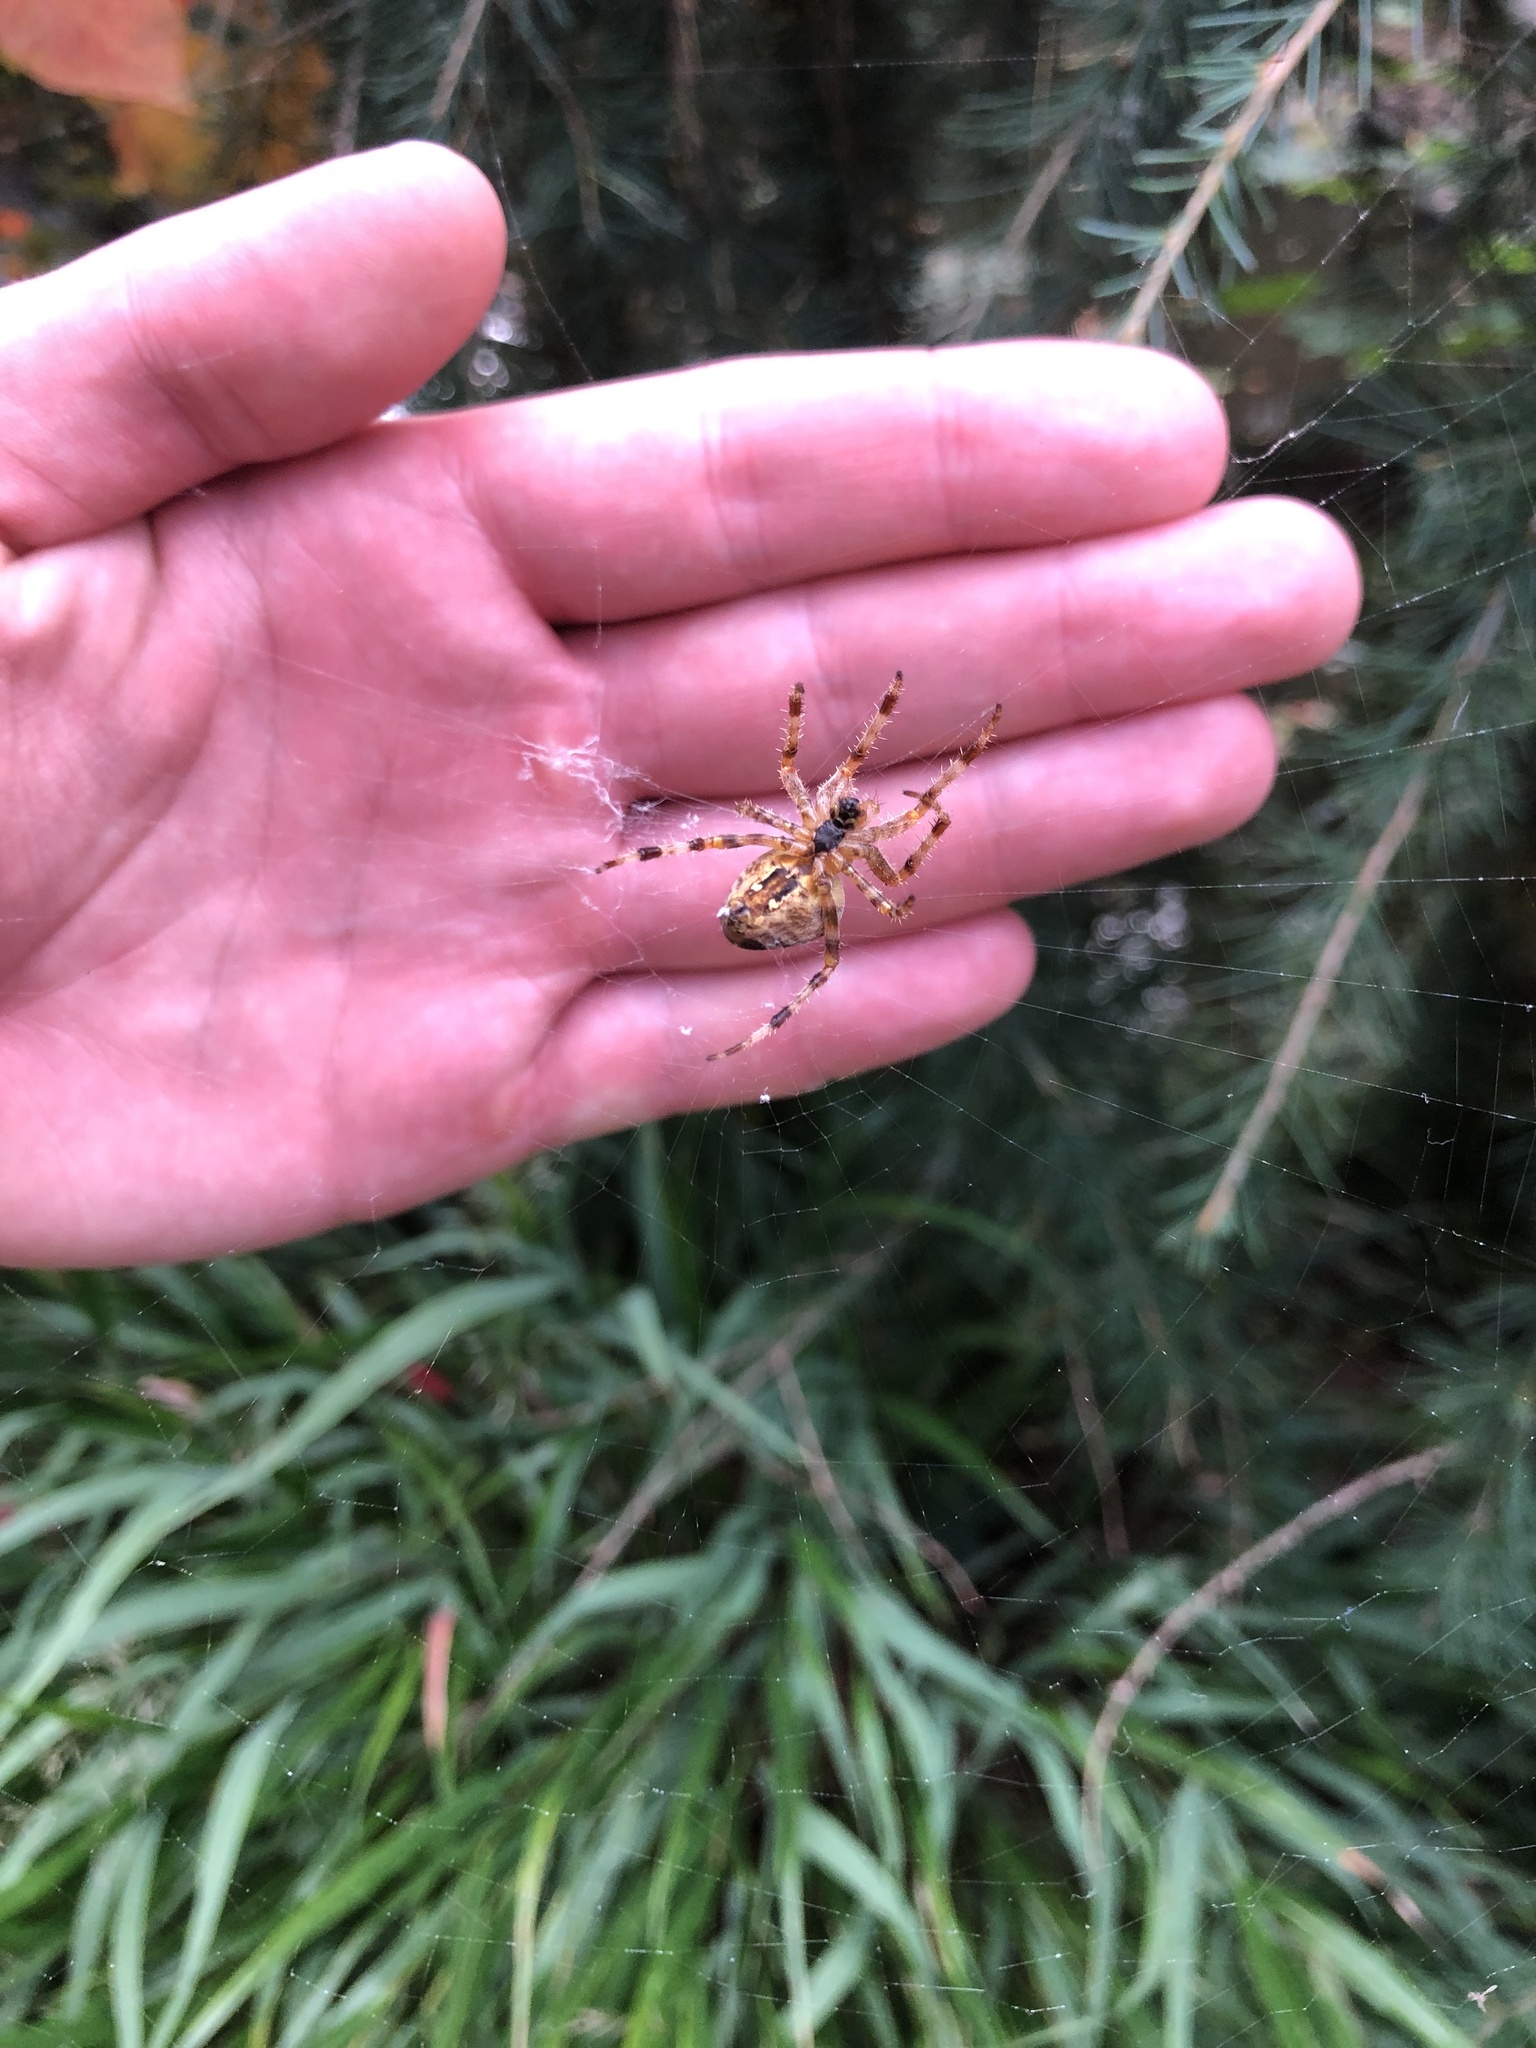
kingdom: Animalia
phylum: Arthropoda
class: Arachnida
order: Araneae
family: Araneidae
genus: Araneus
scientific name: Araneus diadematus
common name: Cross orbweaver
